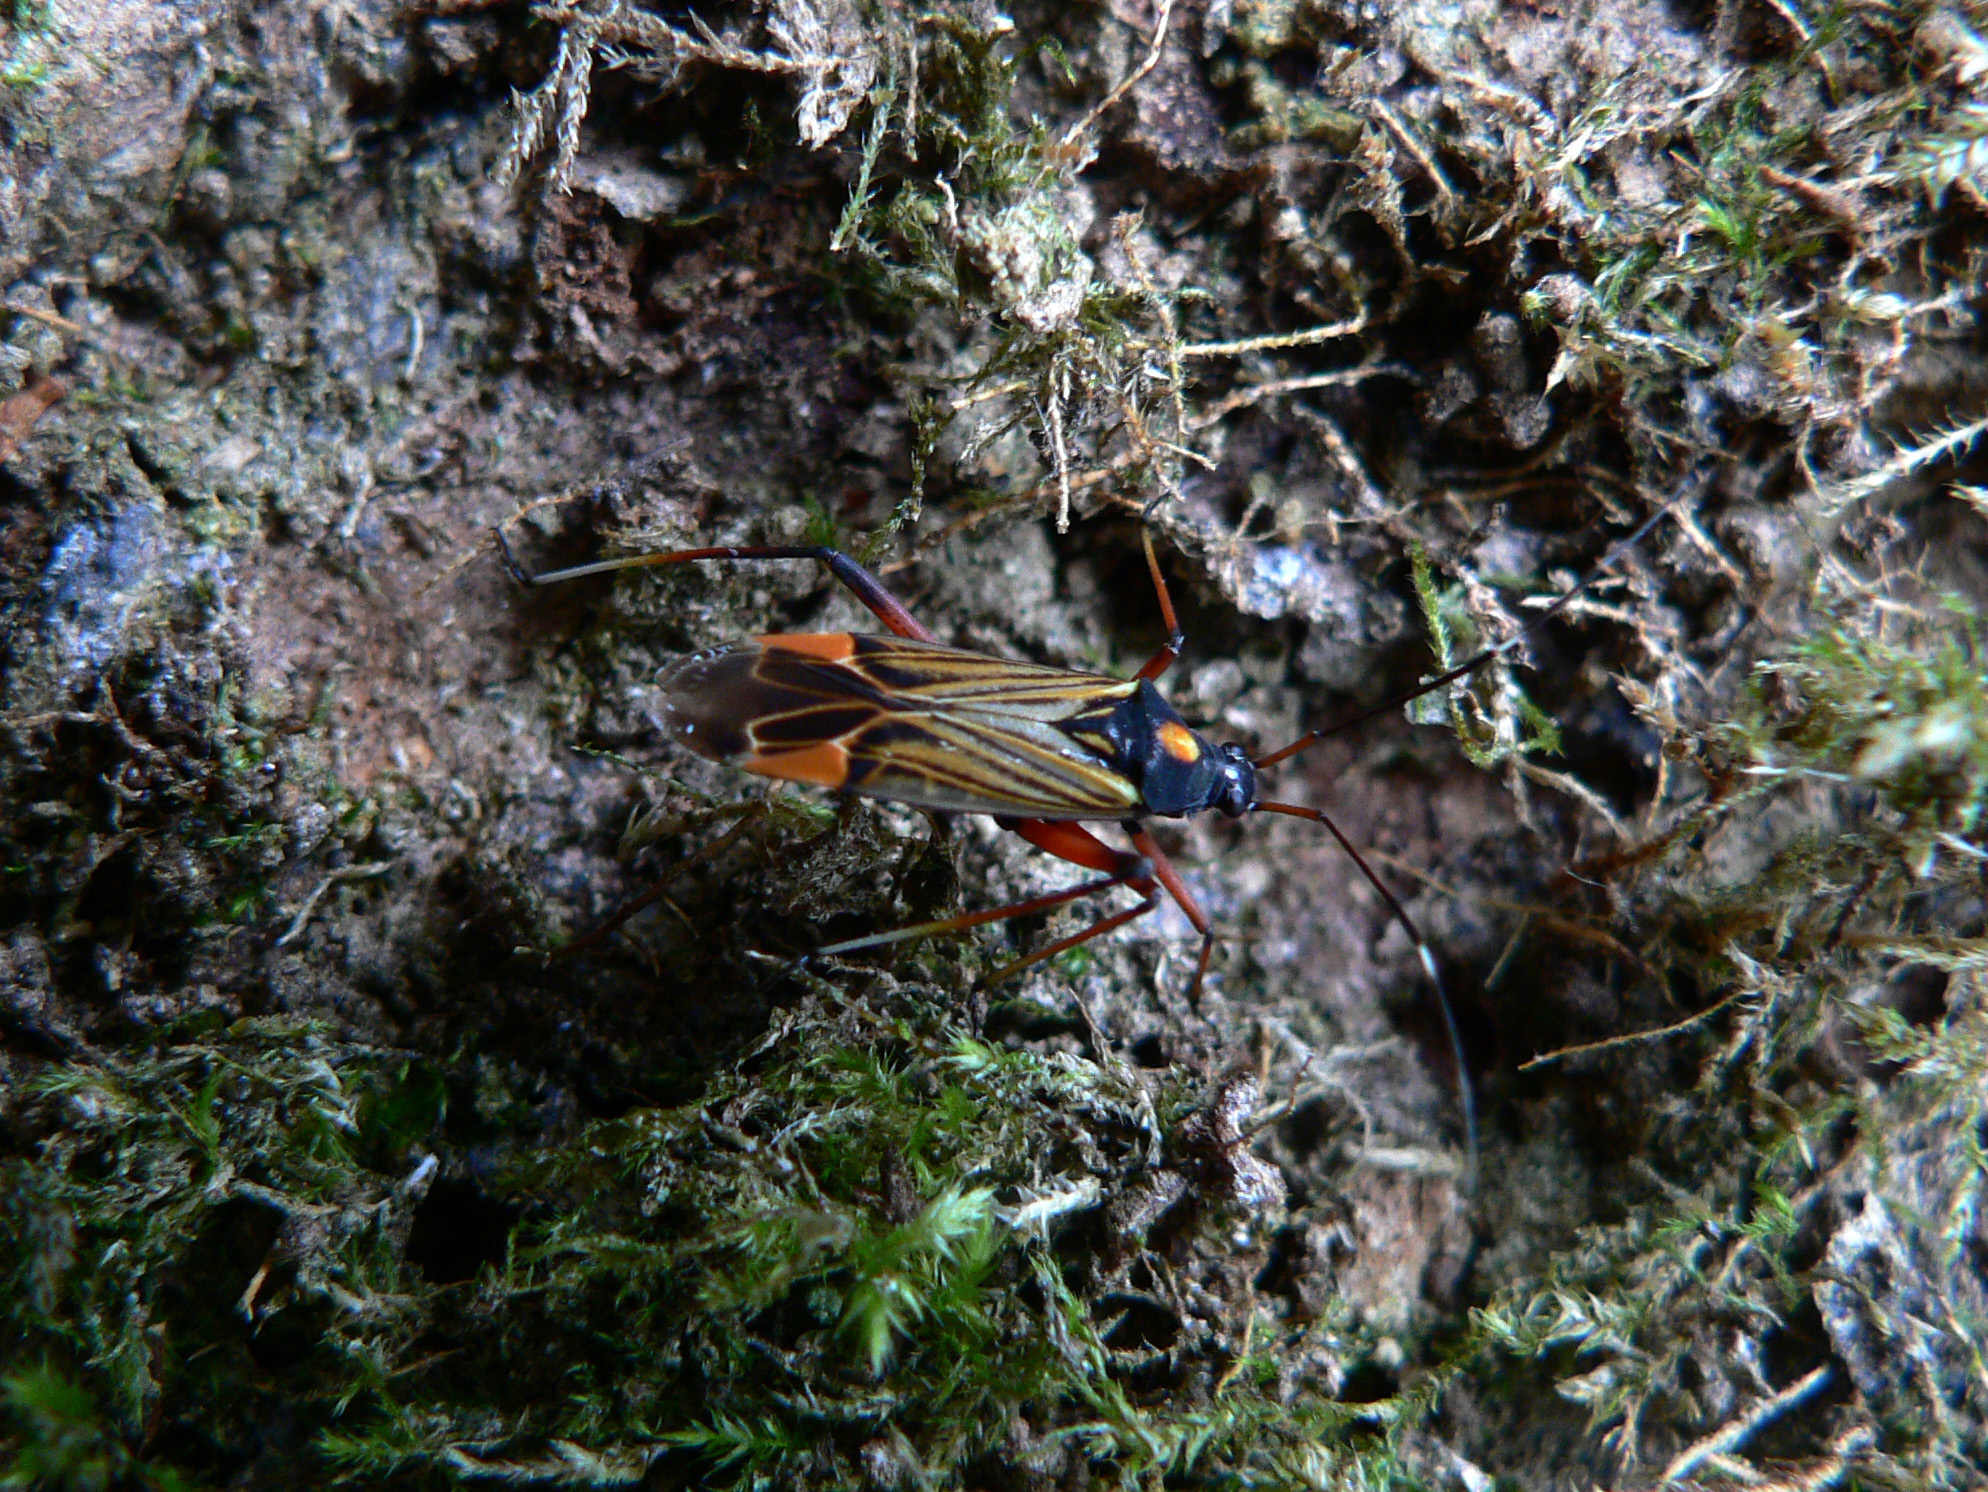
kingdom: Animalia
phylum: Arthropoda
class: Insecta
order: Hemiptera
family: Miridae
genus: Miris
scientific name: Miris striatus
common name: Fine streaked bugkin
